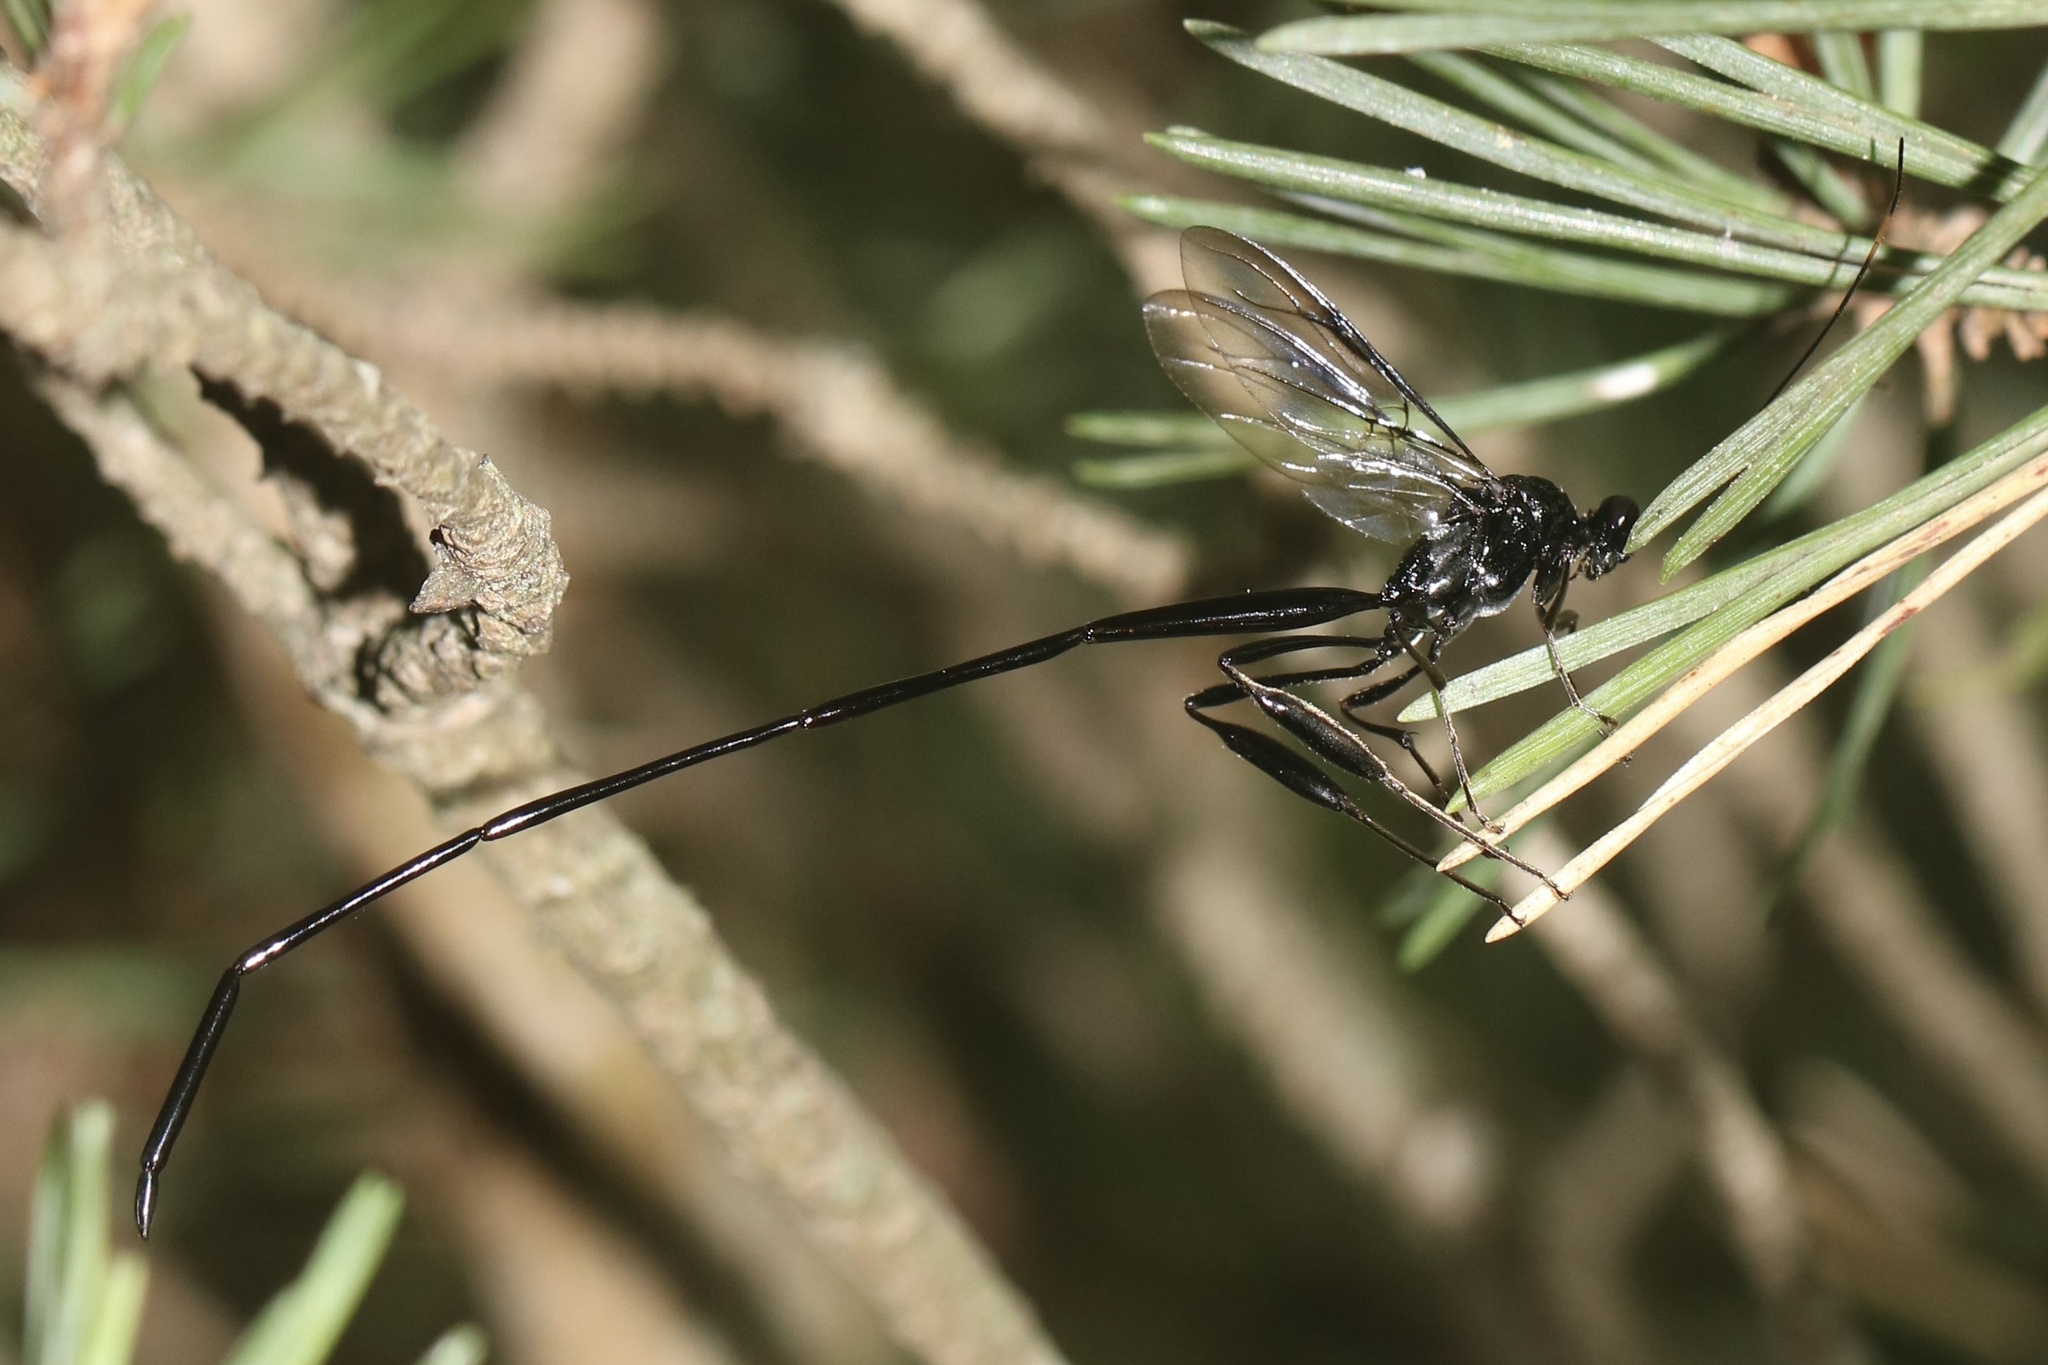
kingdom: Animalia
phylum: Arthropoda
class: Insecta
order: Hymenoptera
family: Pelecinidae
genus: Pelecinus
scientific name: Pelecinus polyturator
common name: American pelecinid wasp
